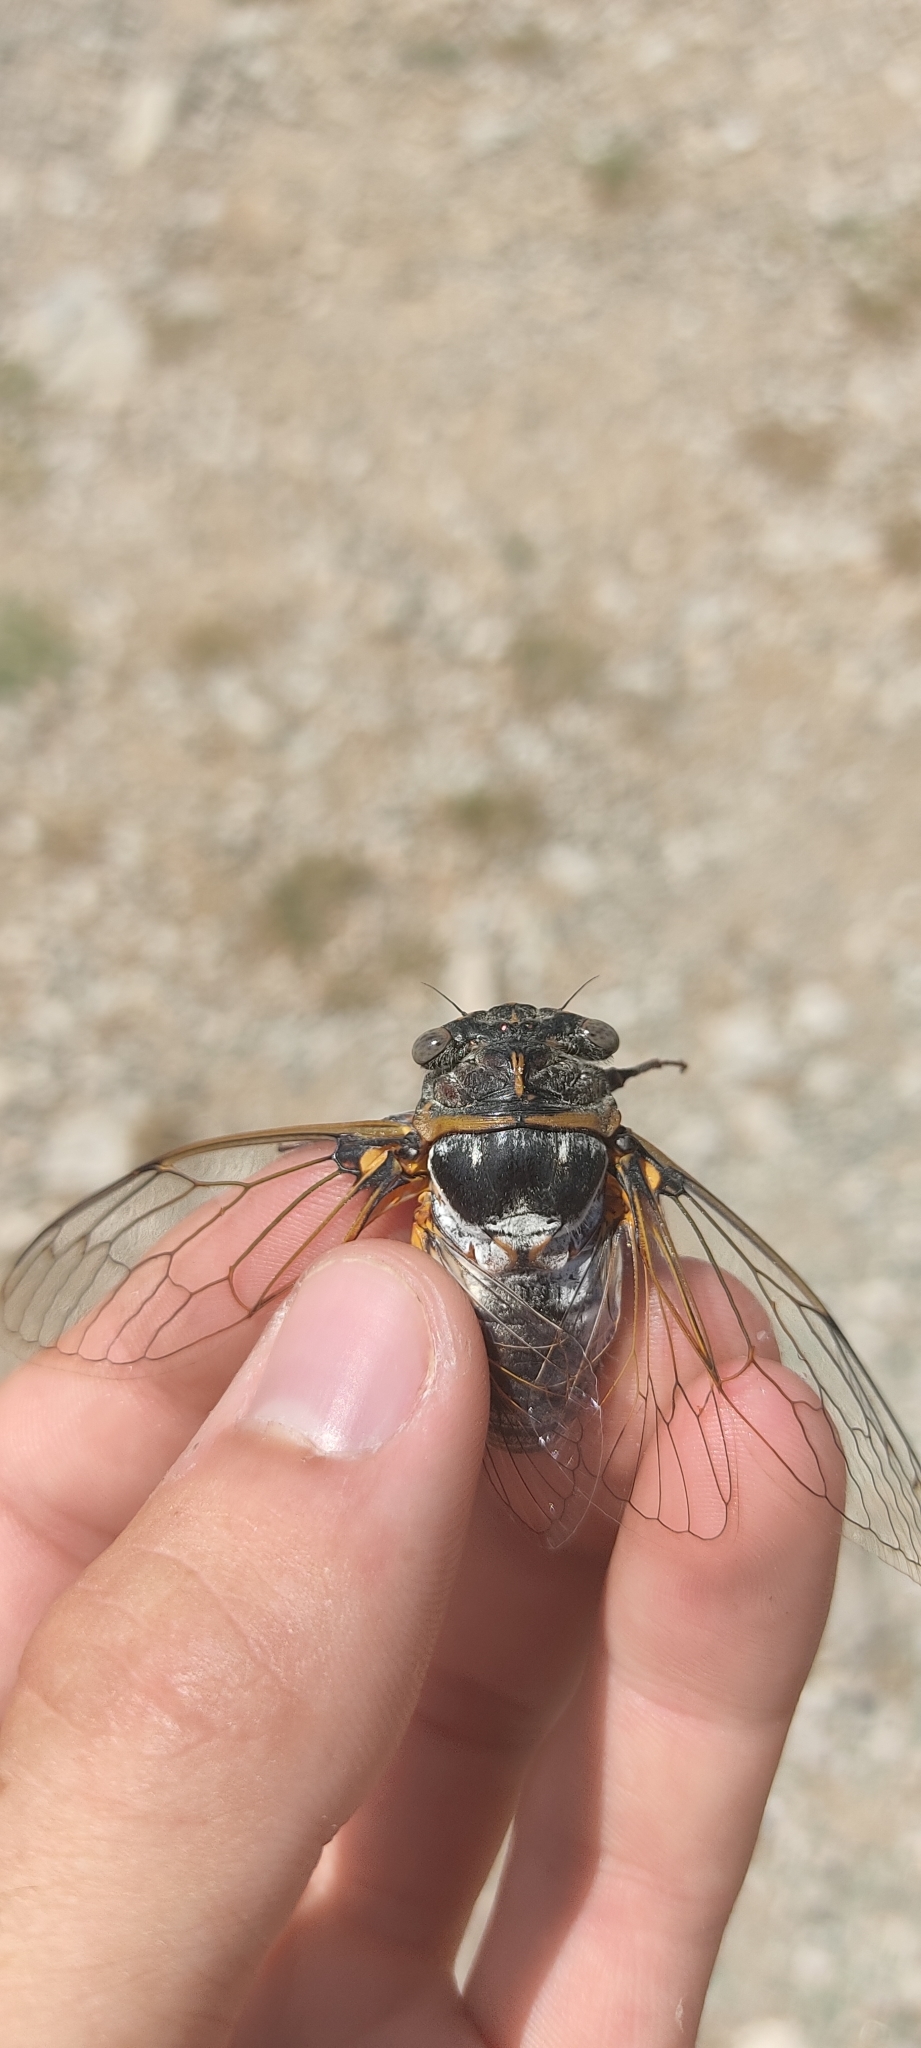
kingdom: Animalia
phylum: Arthropoda
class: Insecta
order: Hemiptera
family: Cicadidae
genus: Lyristes
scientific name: Lyristes plebejus
